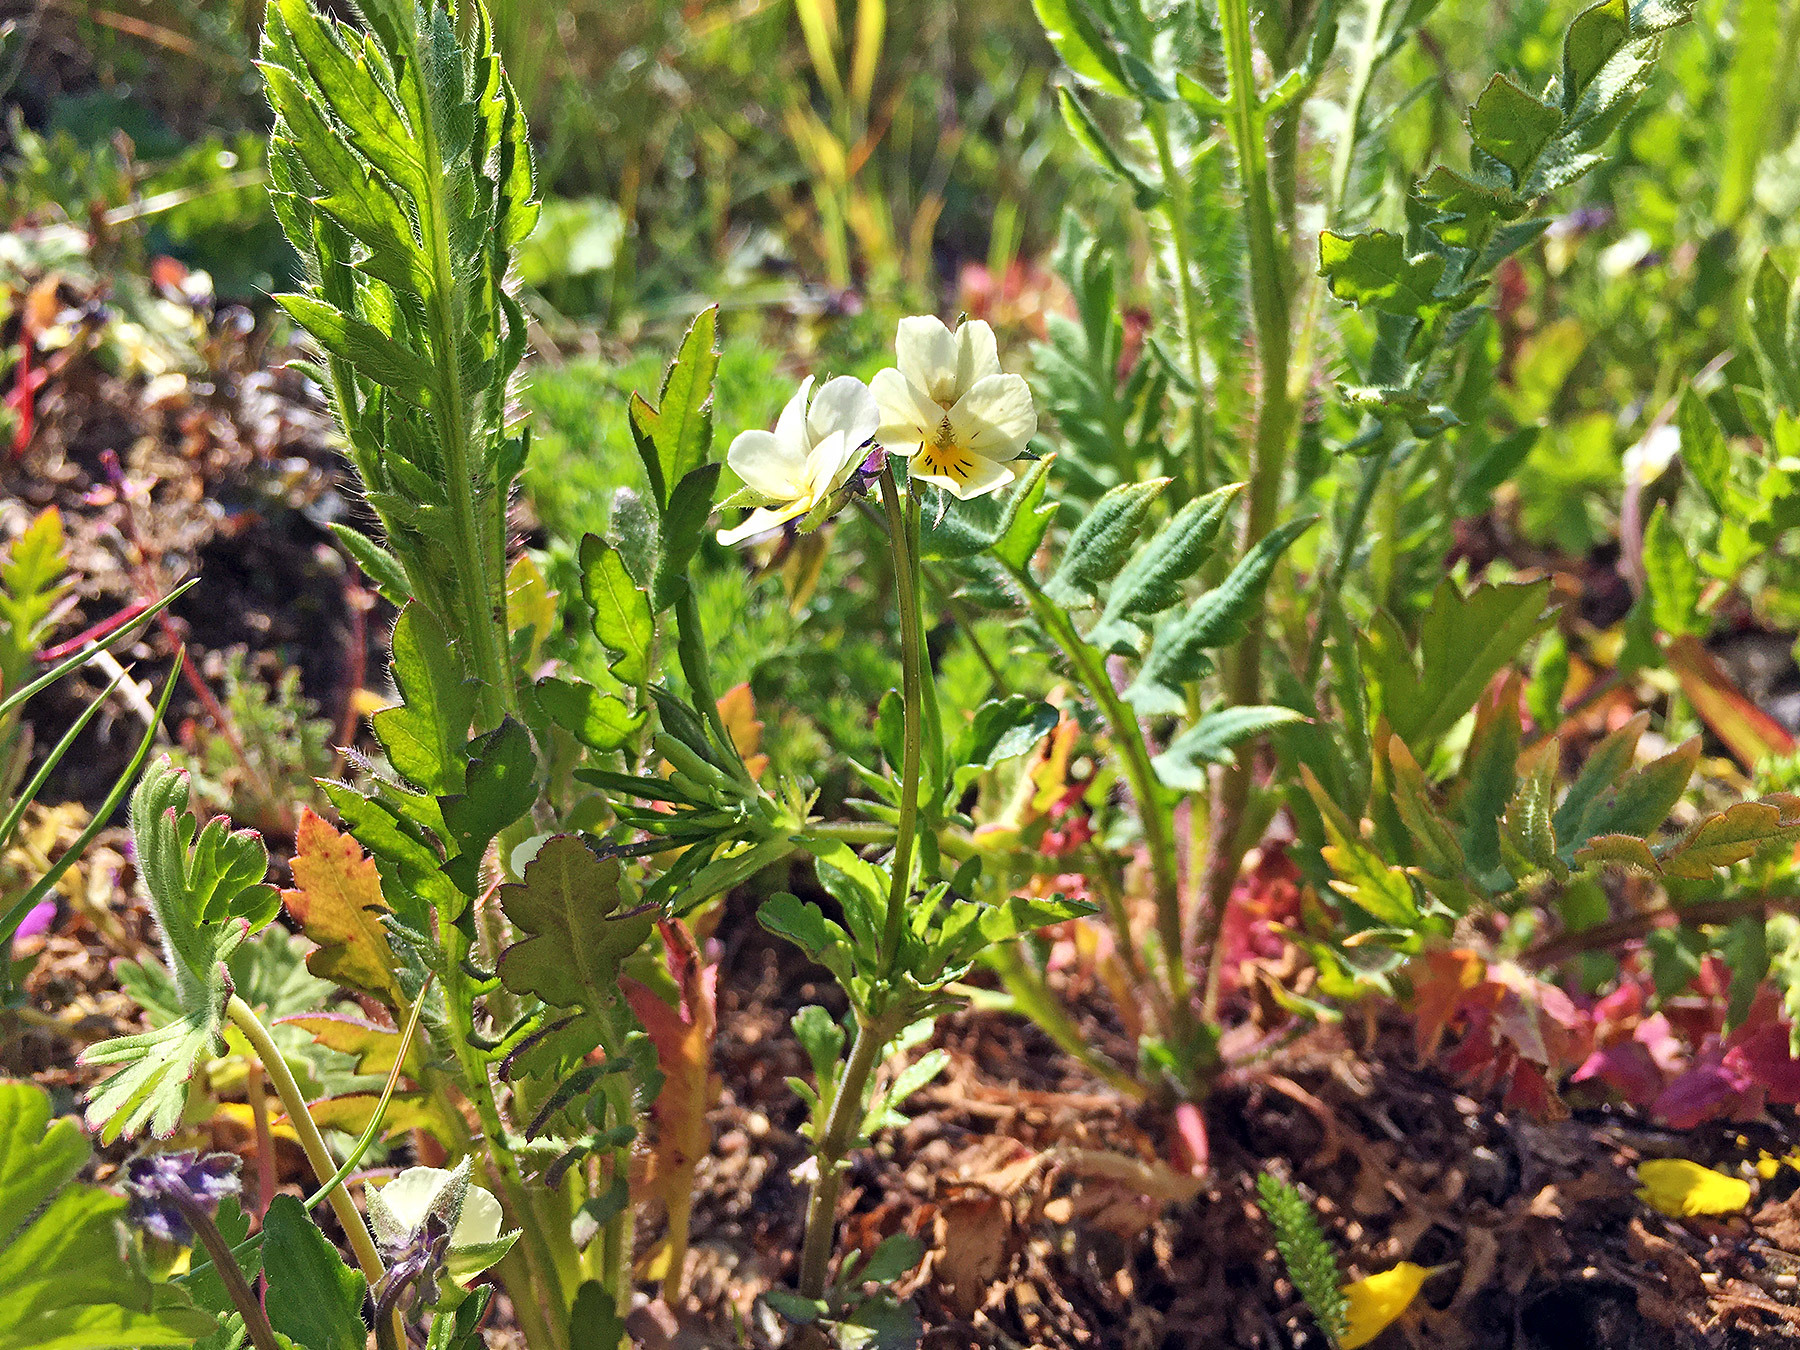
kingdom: Plantae
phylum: Tracheophyta
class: Magnoliopsida
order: Malpighiales
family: Violaceae
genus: Viola
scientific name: Viola arvensis
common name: Field pansy
